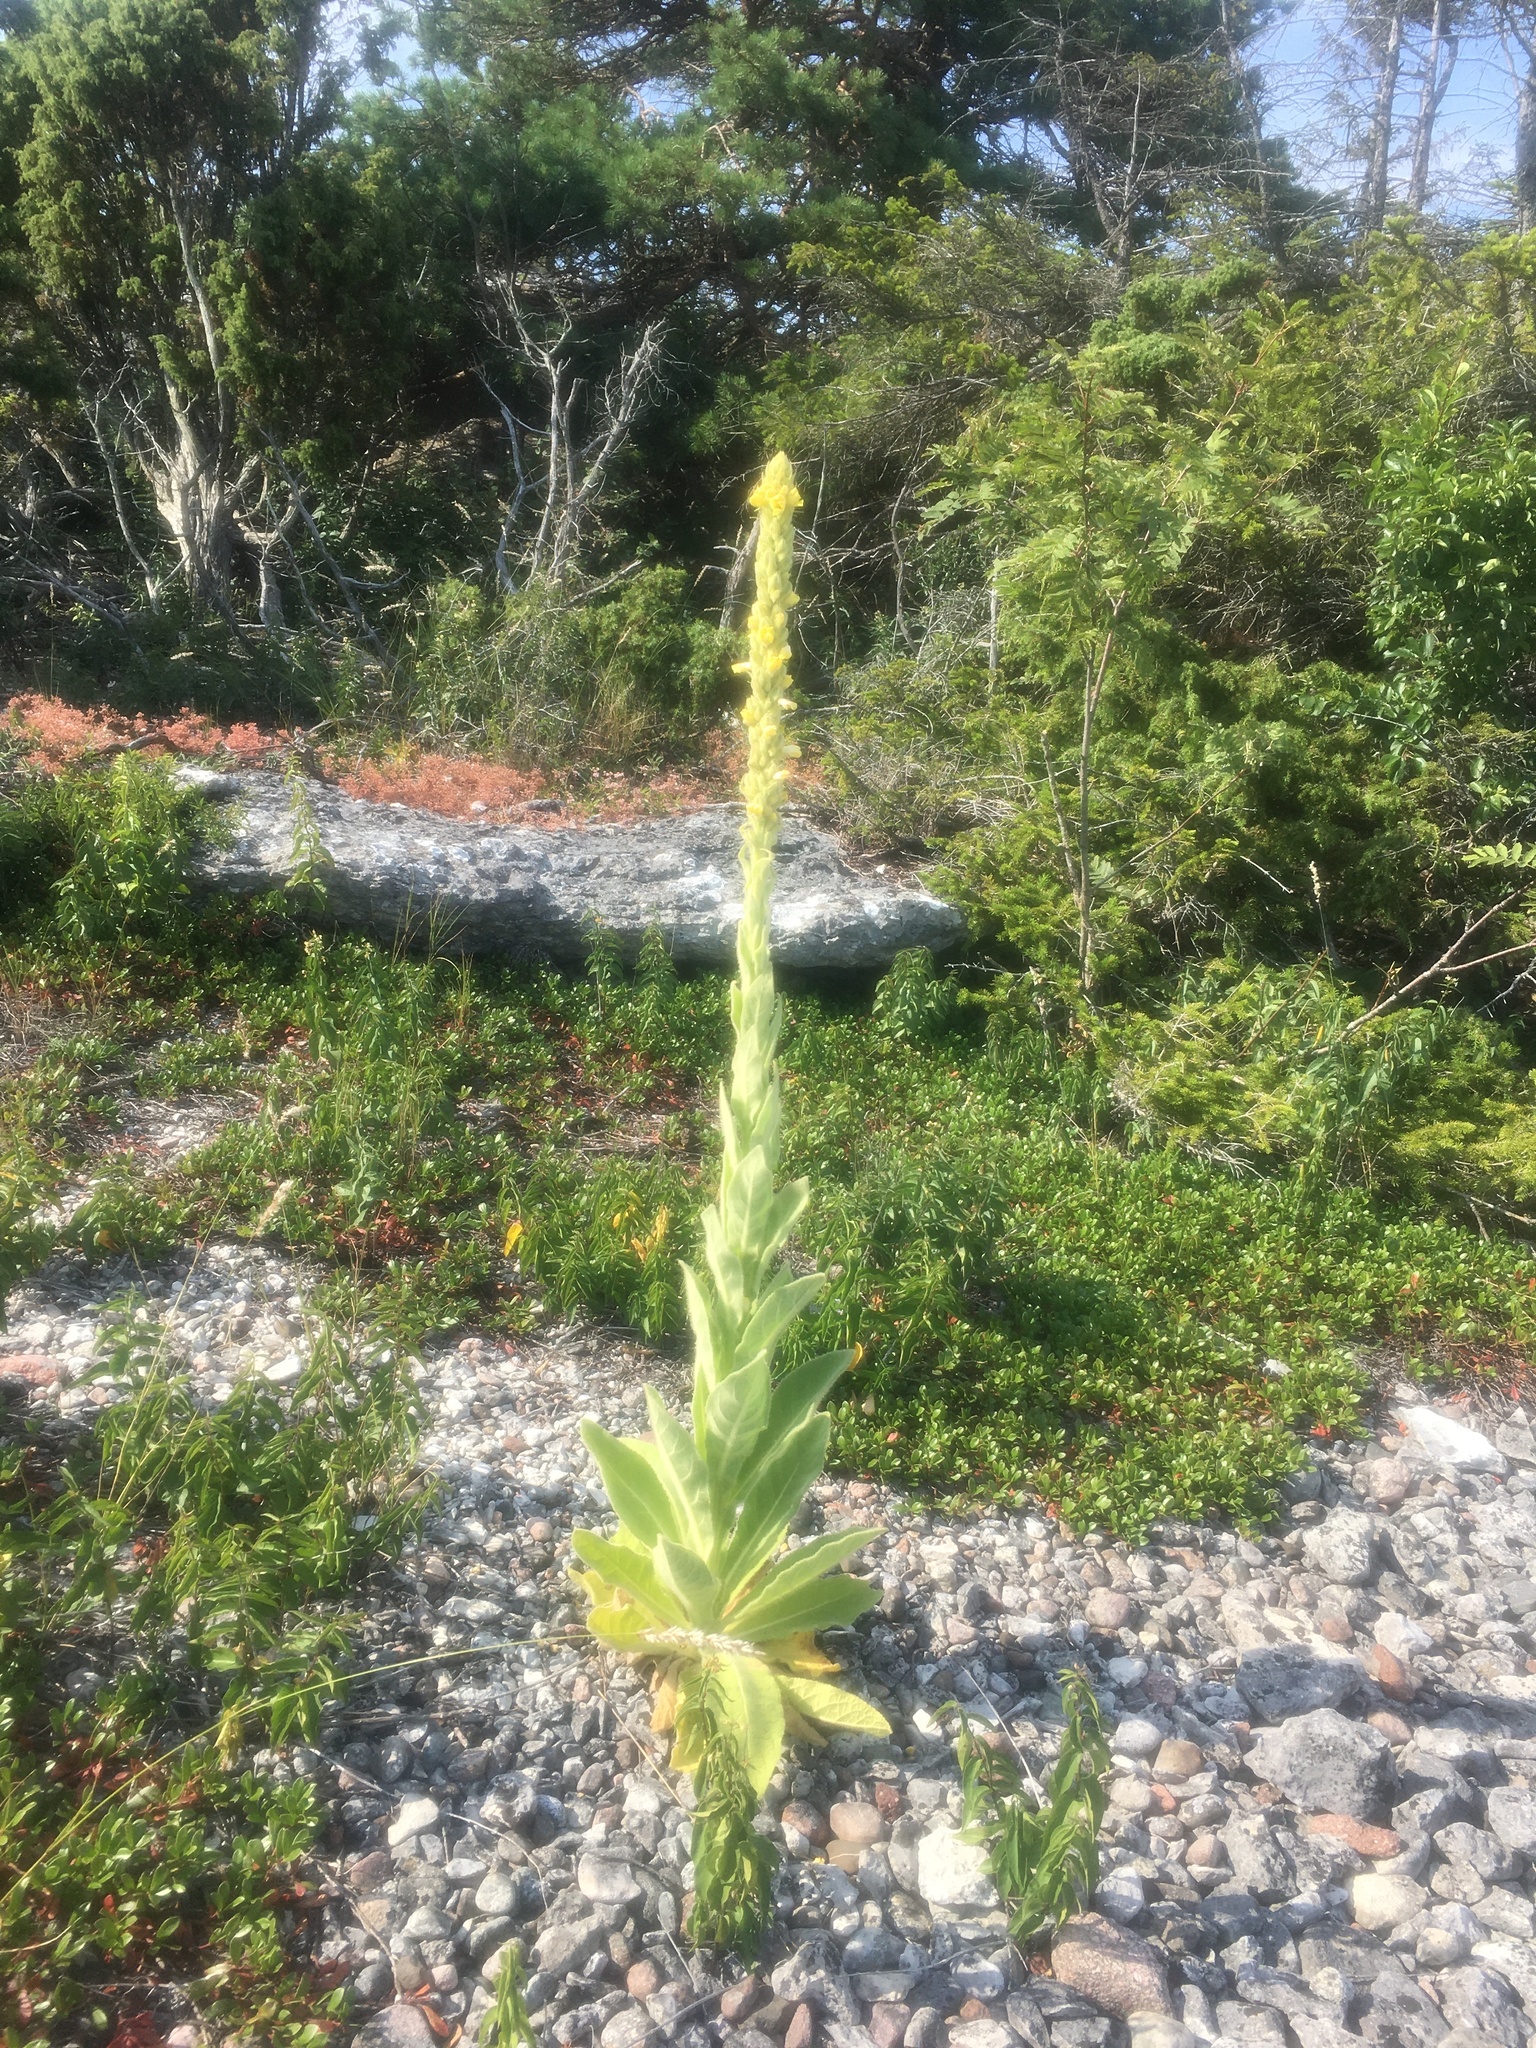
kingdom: Plantae
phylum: Tracheophyta
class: Magnoliopsida
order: Lamiales
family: Scrophulariaceae
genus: Verbascum
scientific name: Verbascum thapsus
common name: Common mullein
